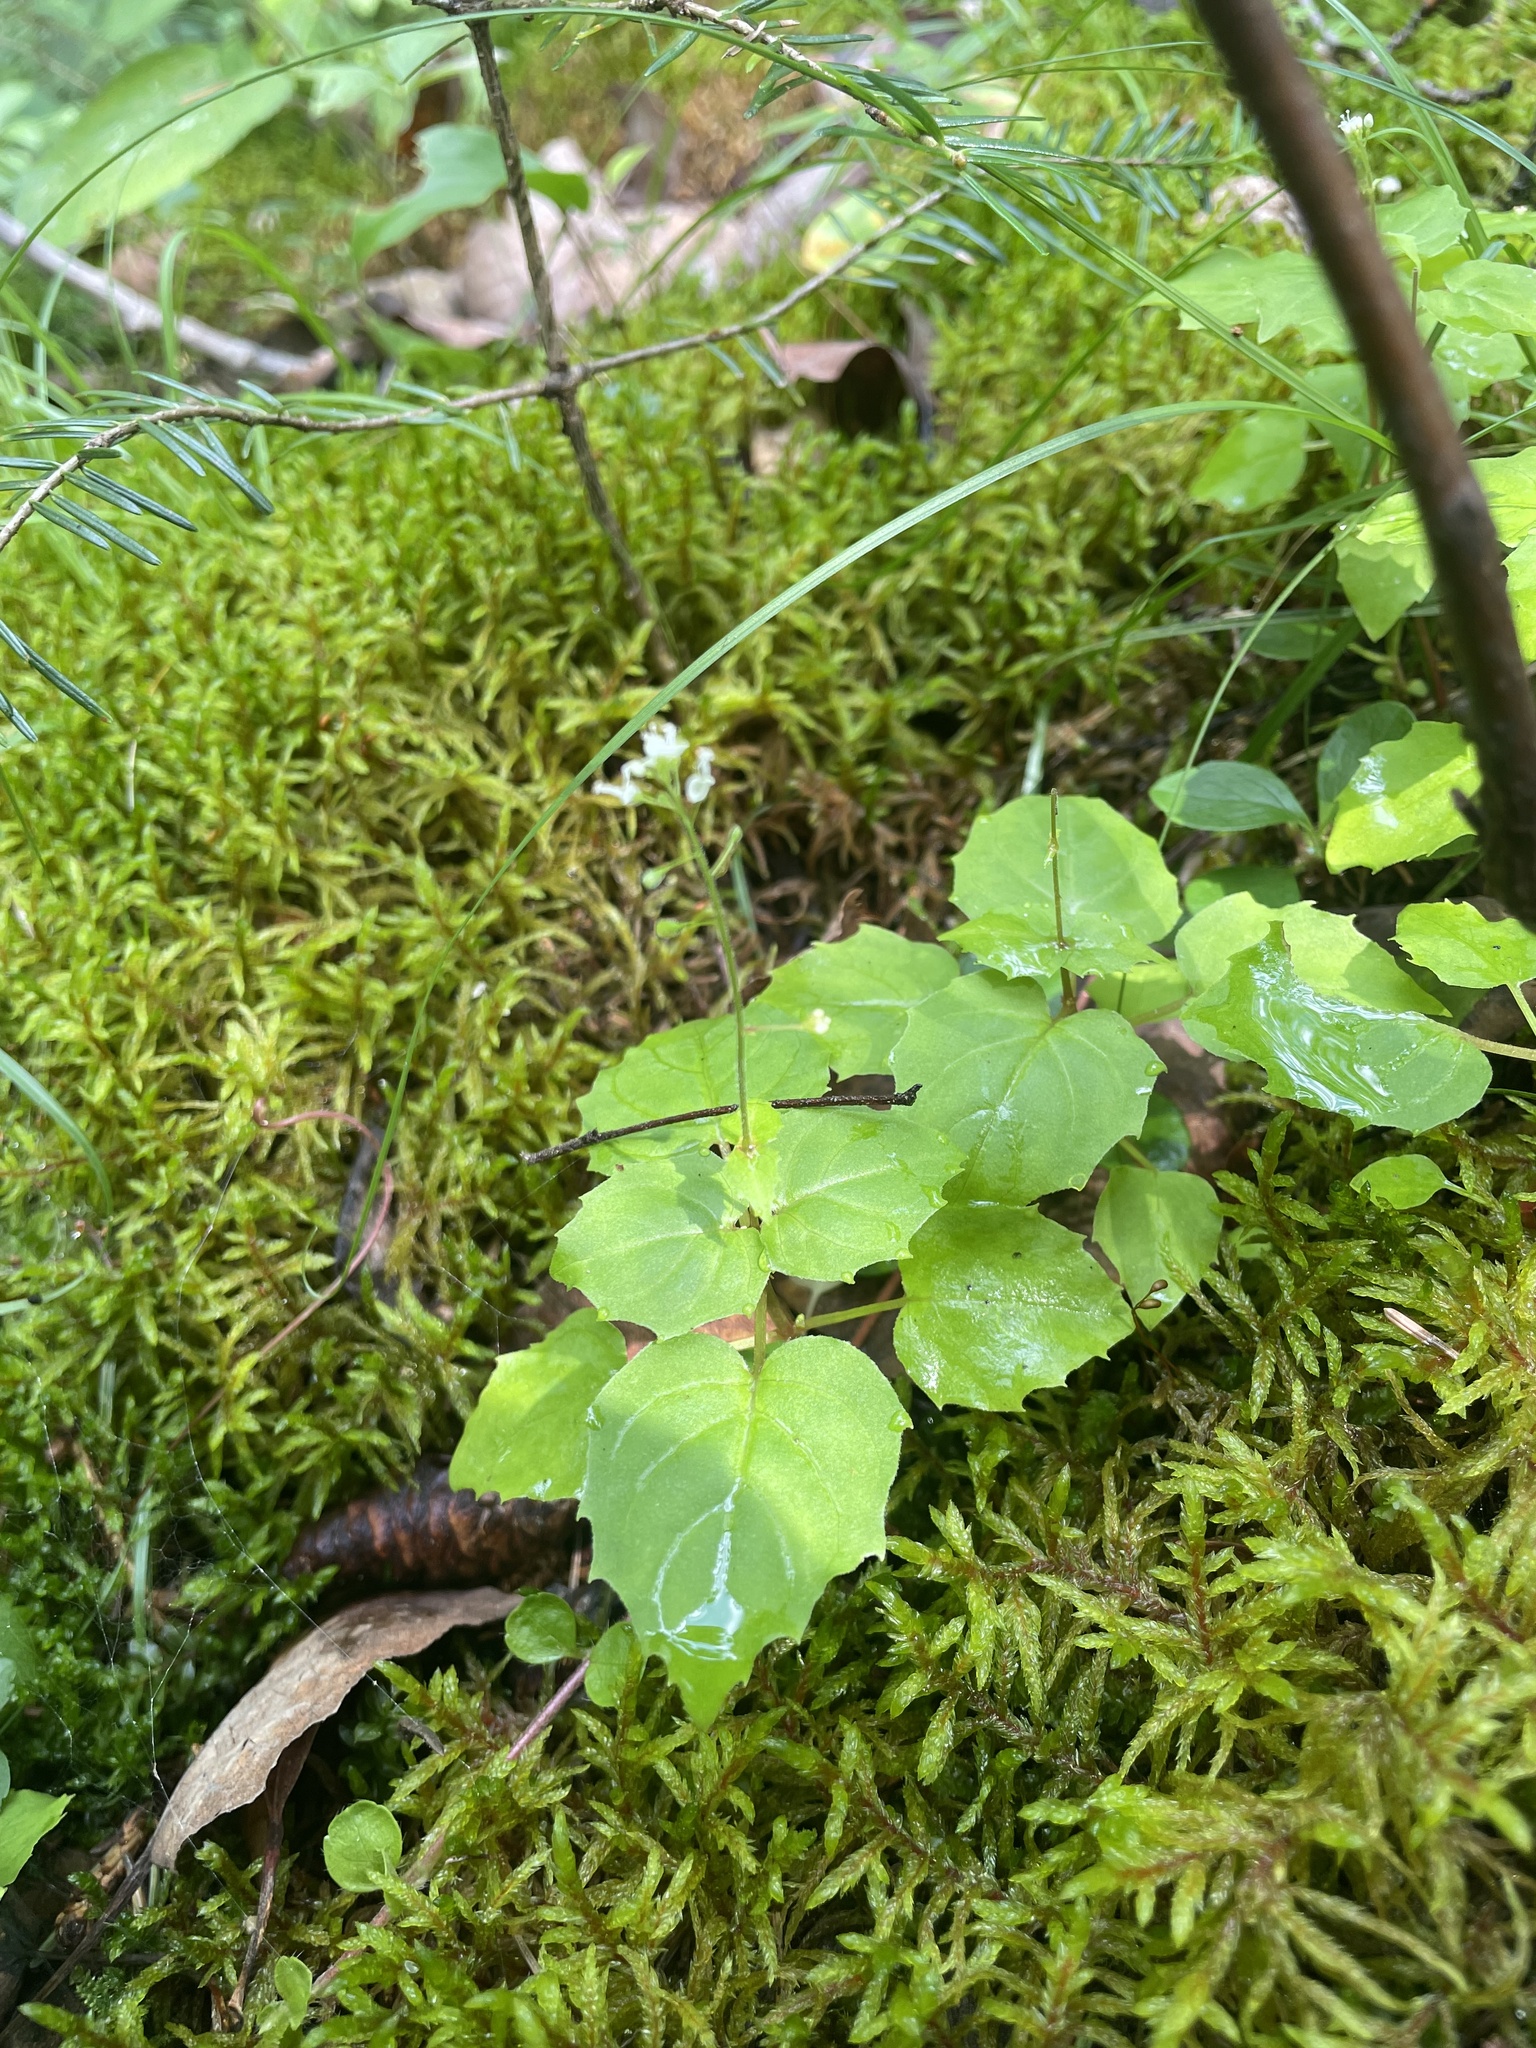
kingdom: Plantae
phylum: Tracheophyta
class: Magnoliopsida
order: Myrtales
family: Onagraceae
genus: Circaea
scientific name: Circaea alpina
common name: Alpine enchanter's-nightshade
